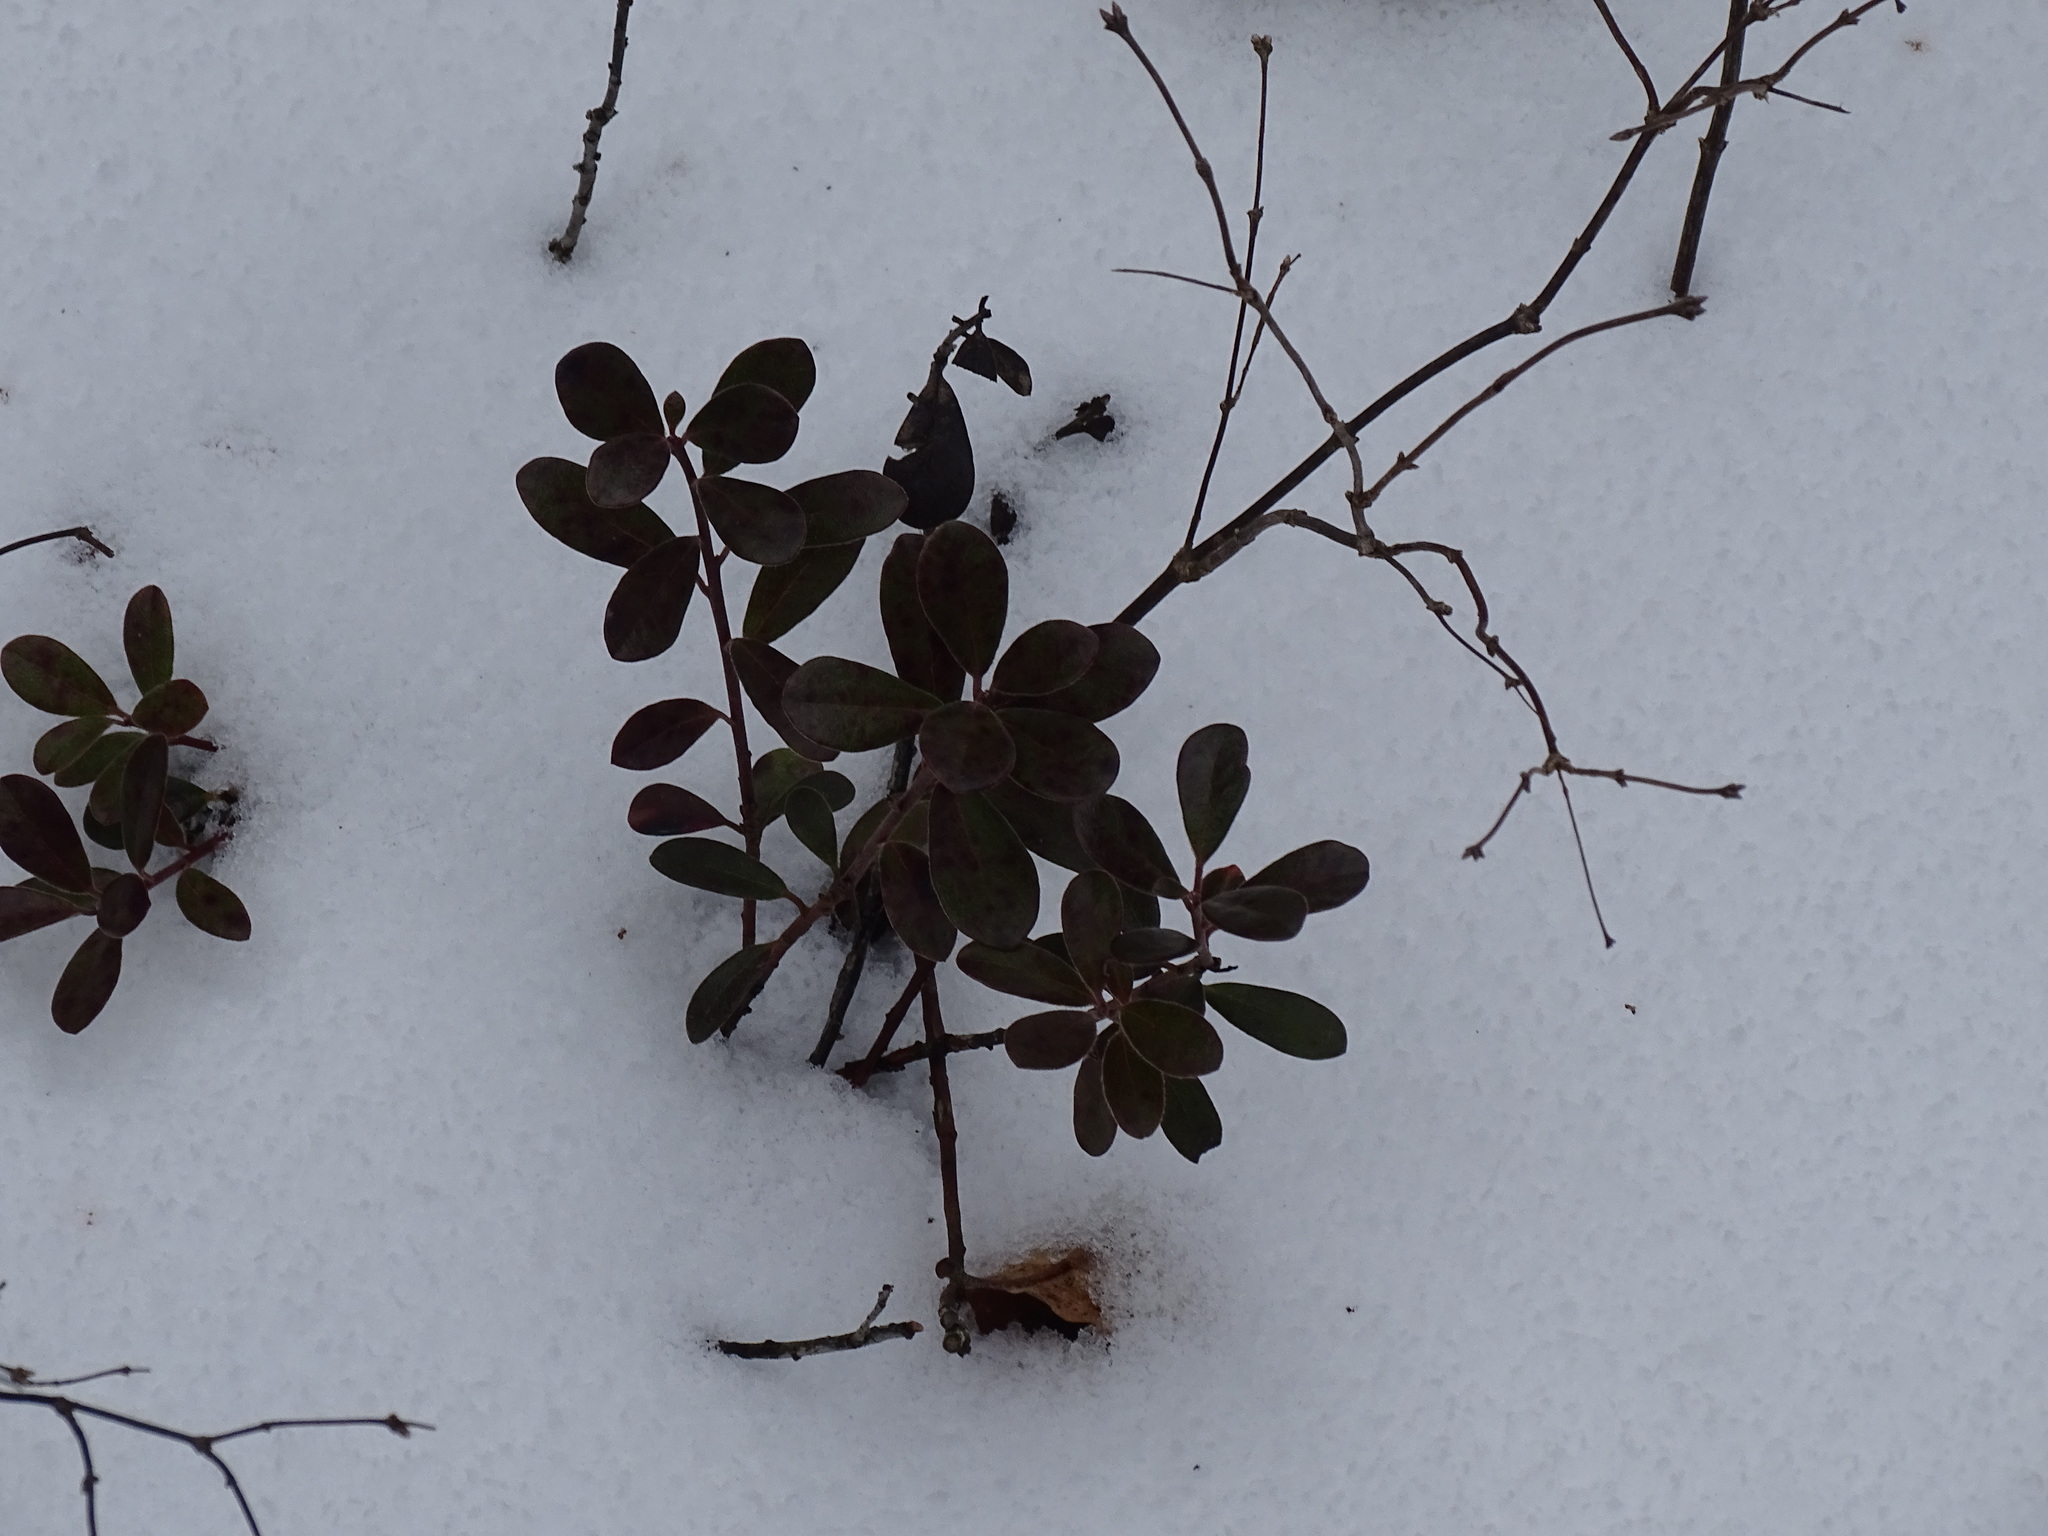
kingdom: Plantae
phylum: Tracheophyta
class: Magnoliopsida
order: Ericales
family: Ericaceae
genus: Arctostaphylos
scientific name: Arctostaphylos uva-ursi
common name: Bearberry
